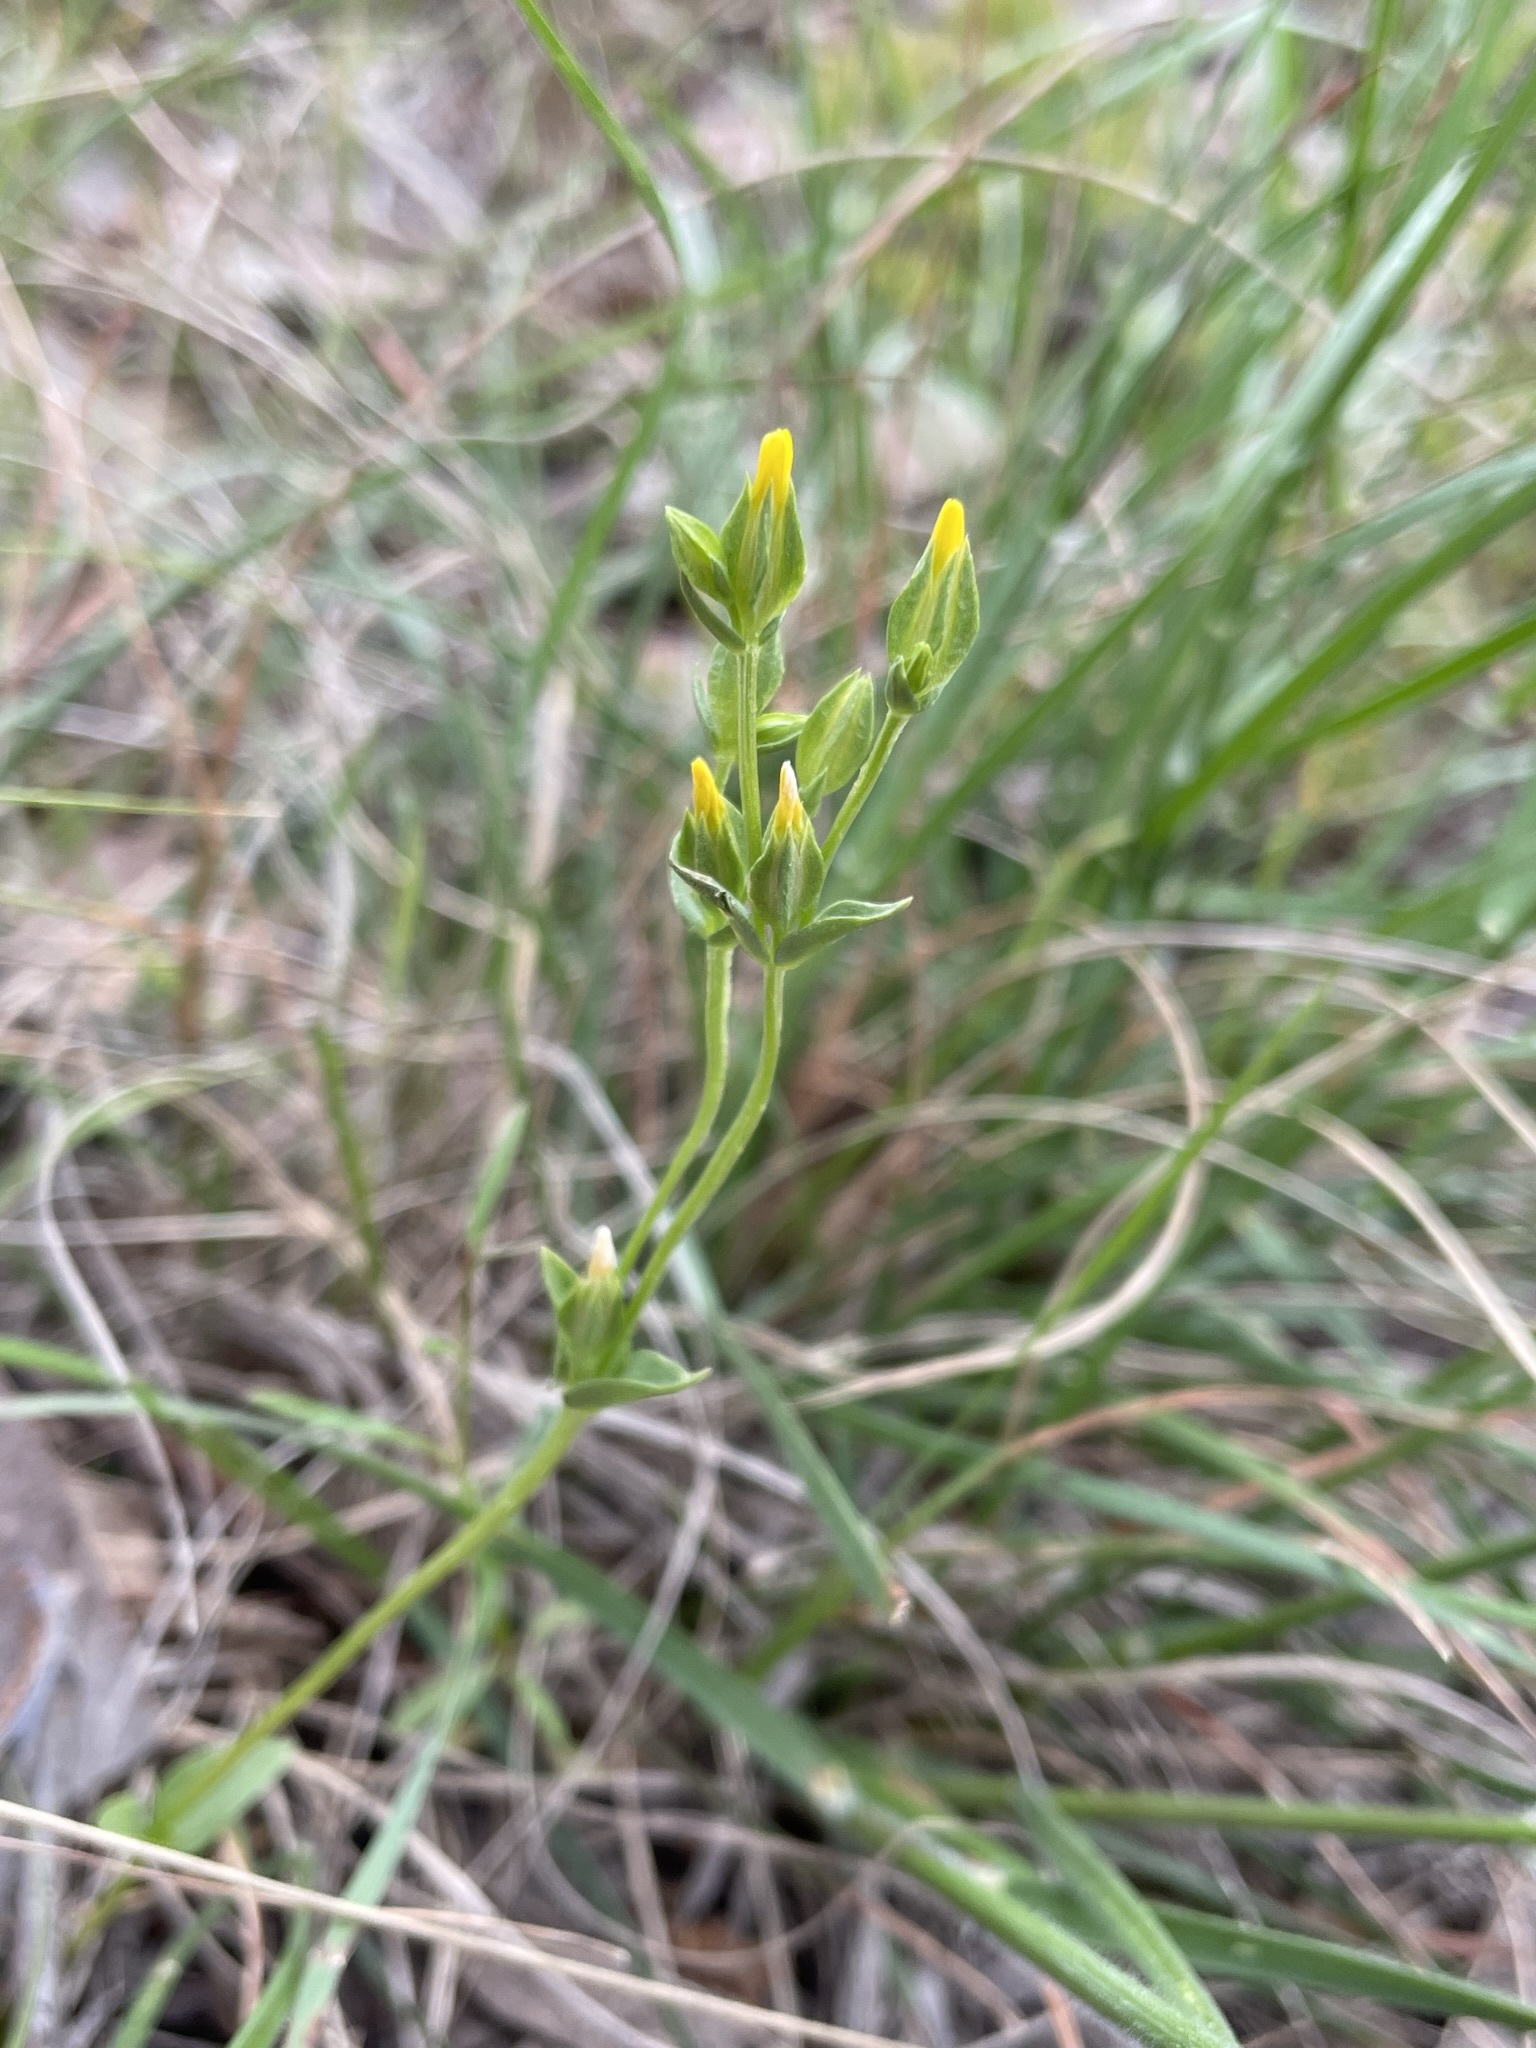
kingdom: Plantae
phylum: Tracheophyta
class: Magnoliopsida
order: Gentianales
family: Gentianaceae
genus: Sebaea
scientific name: Sebaea ovata
